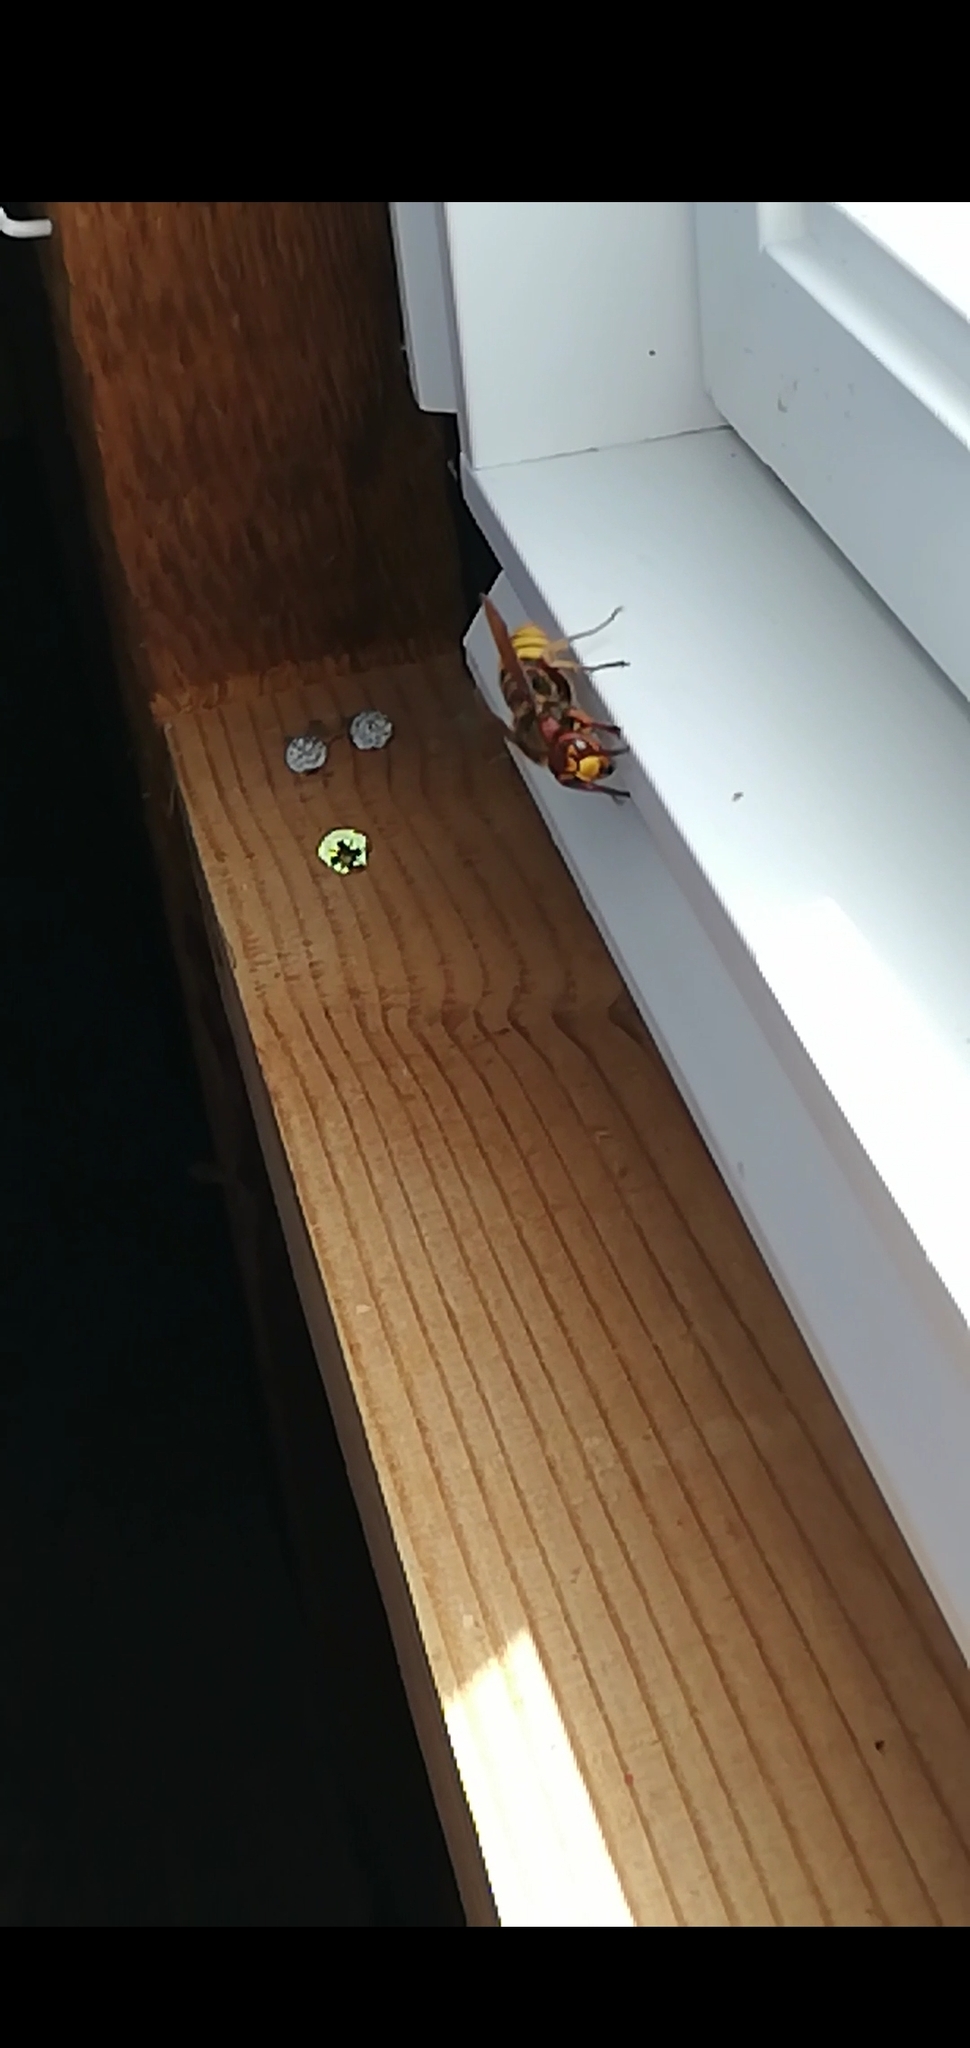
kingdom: Animalia
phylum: Arthropoda
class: Insecta
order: Hymenoptera
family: Vespidae
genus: Vespa
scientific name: Vespa crabro
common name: Hornet
